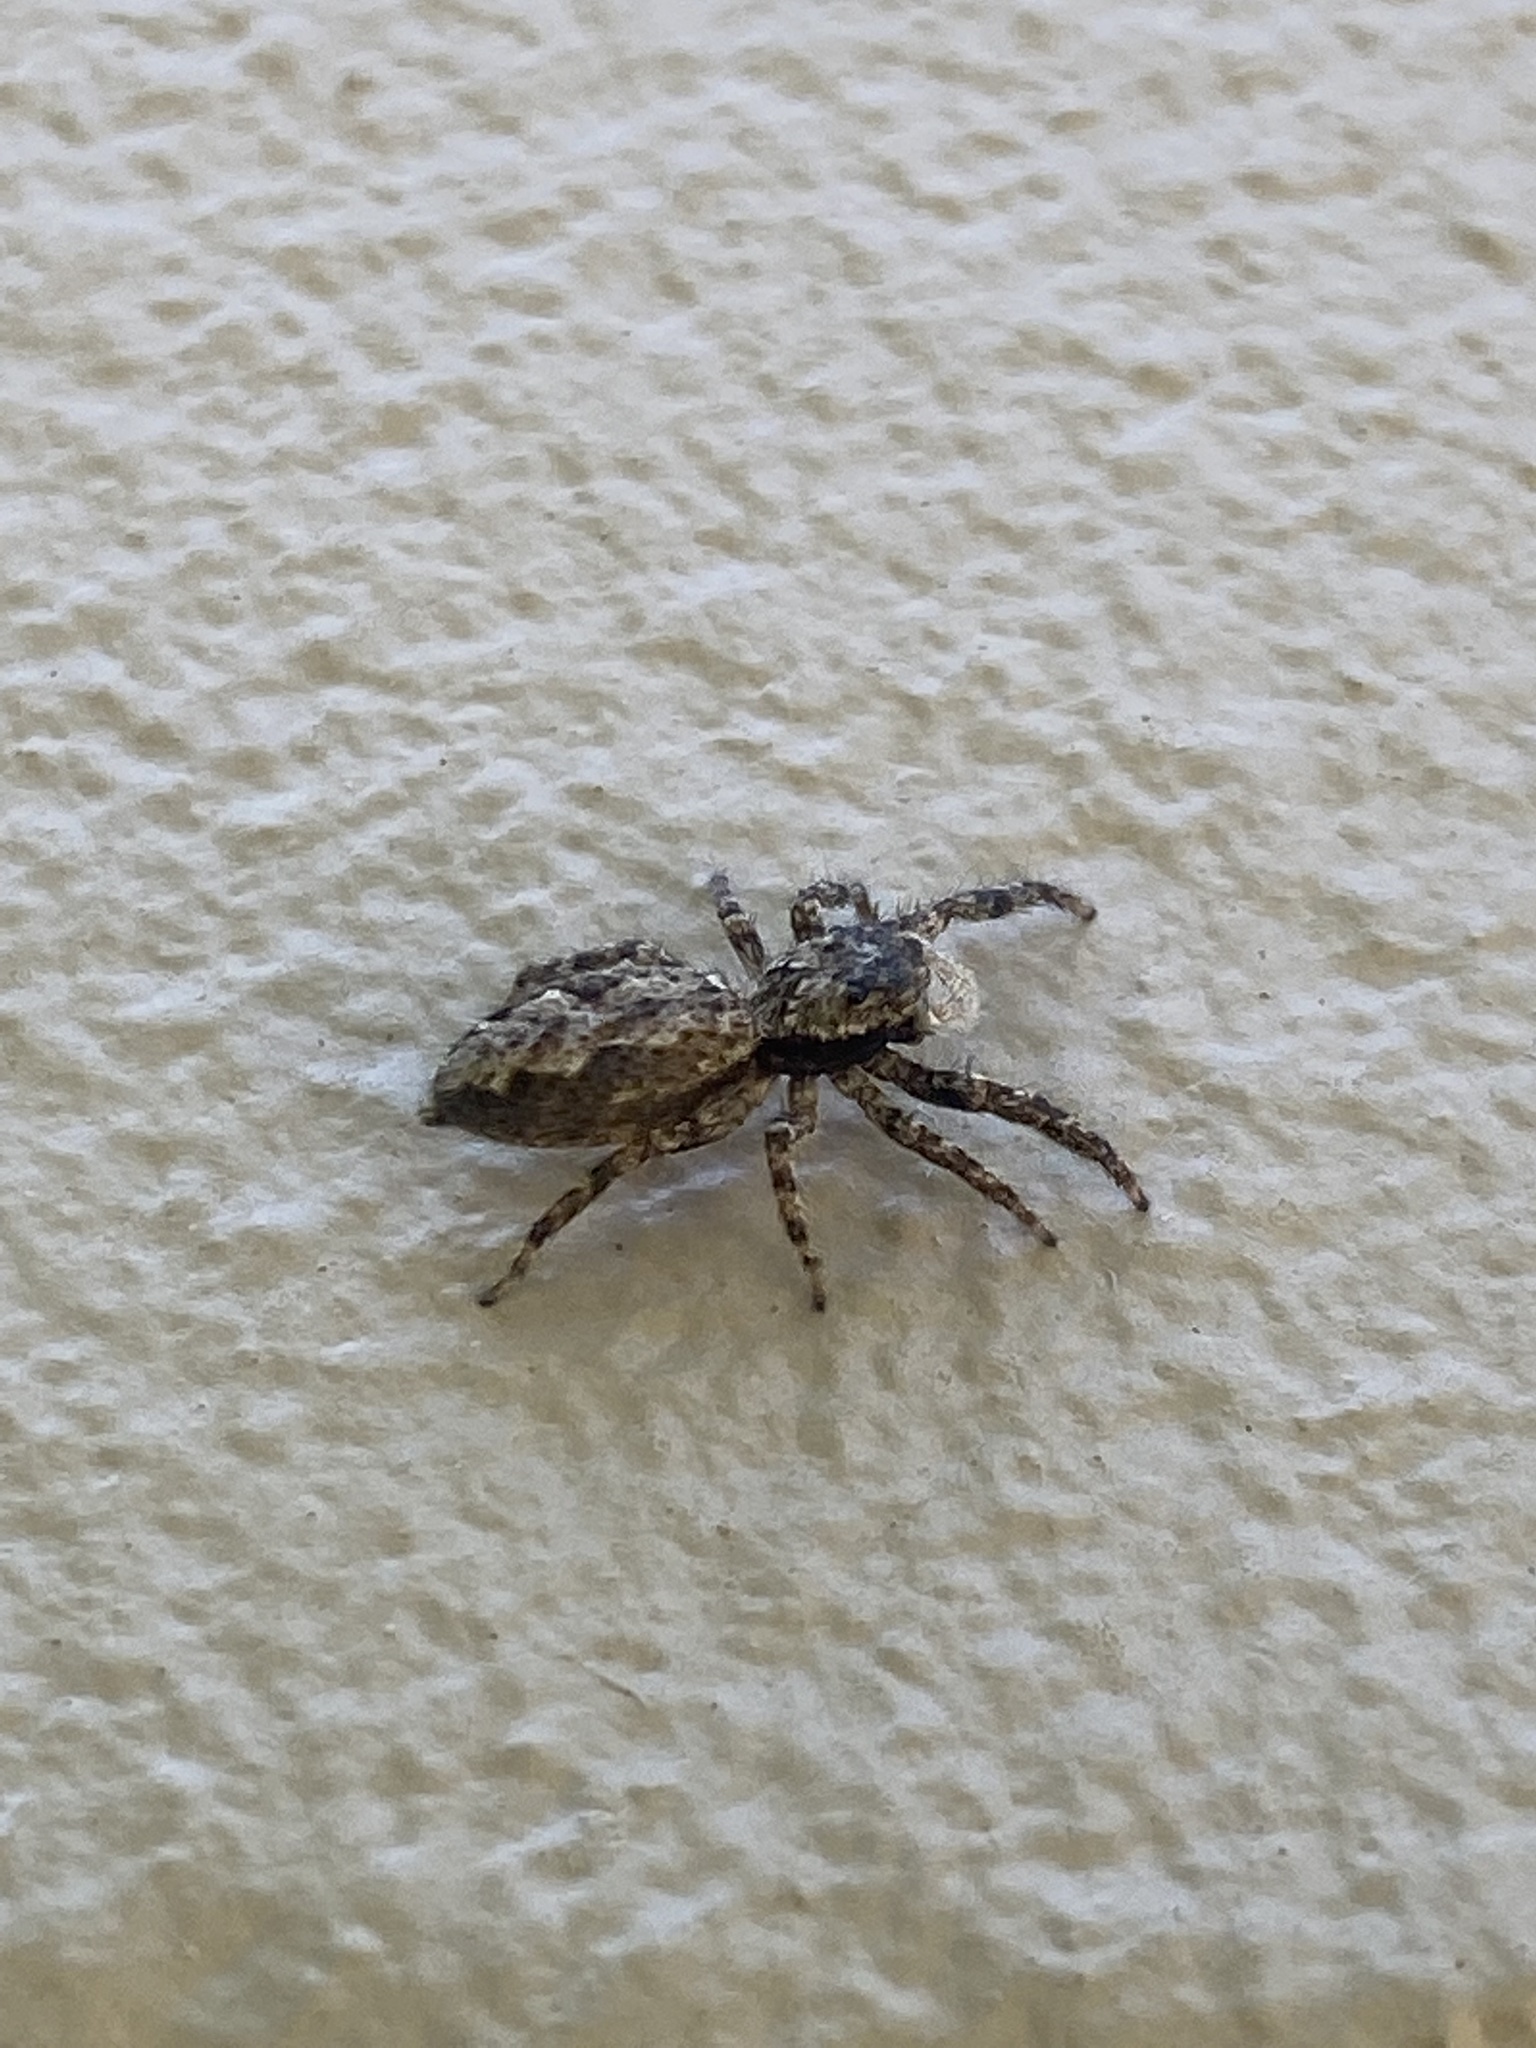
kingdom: Animalia
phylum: Arthropoda
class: Arachnida
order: Araneae
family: Salticidae
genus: Platycryptus
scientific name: Platycryptus undatus
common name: Tan jumping spider
